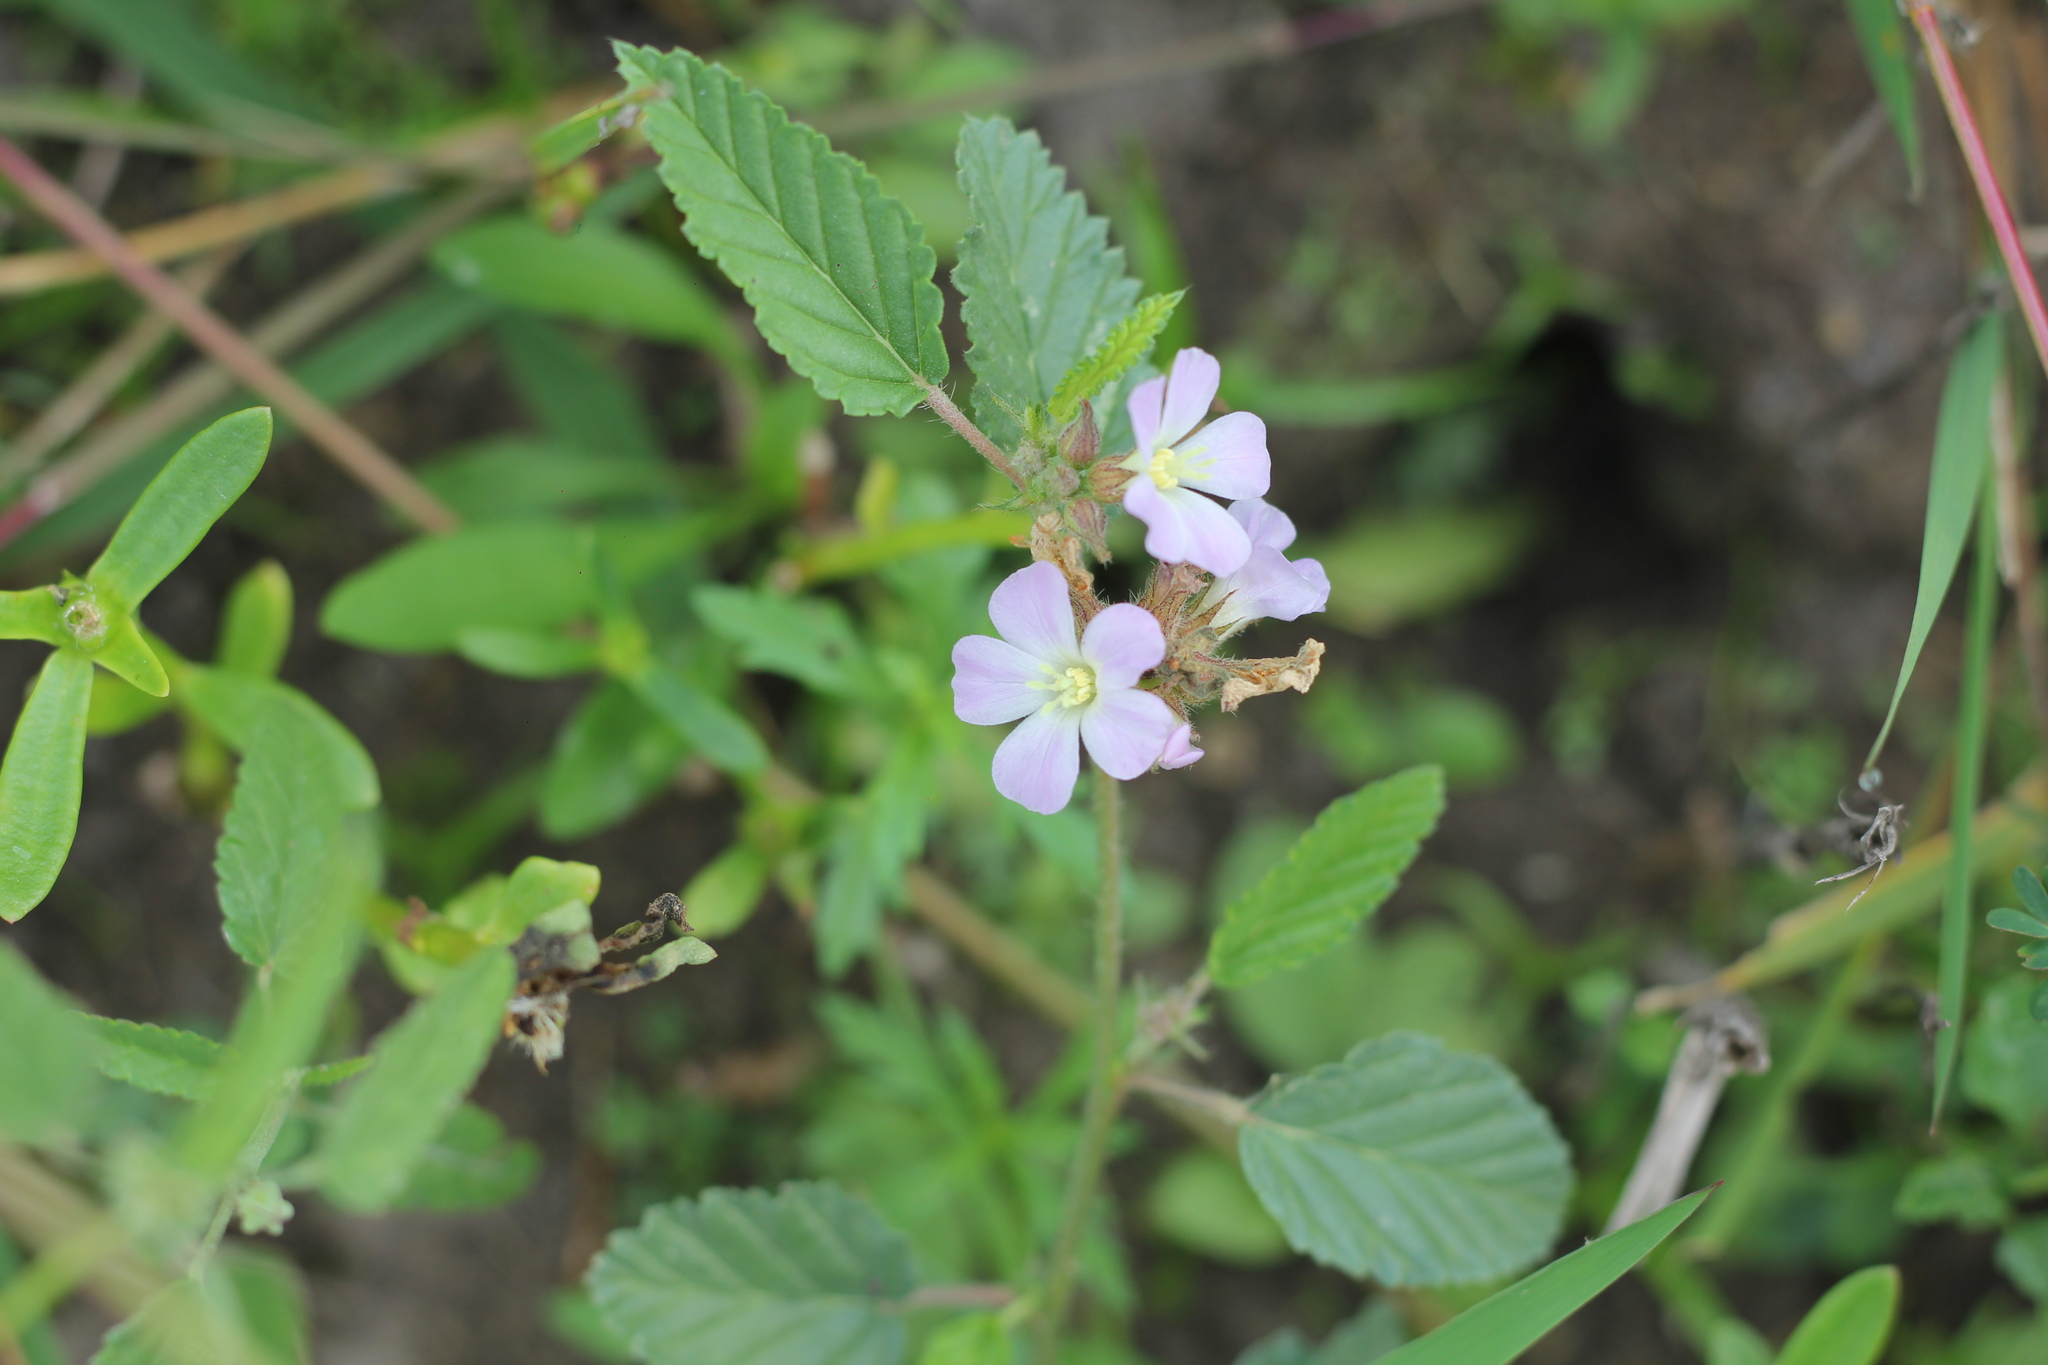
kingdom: Plantae
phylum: Tracheophyta
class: Magnoliopsida
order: Malvales
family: Malvaceae
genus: Melochia
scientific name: Melochia pyramidata
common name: Pyramidflower
